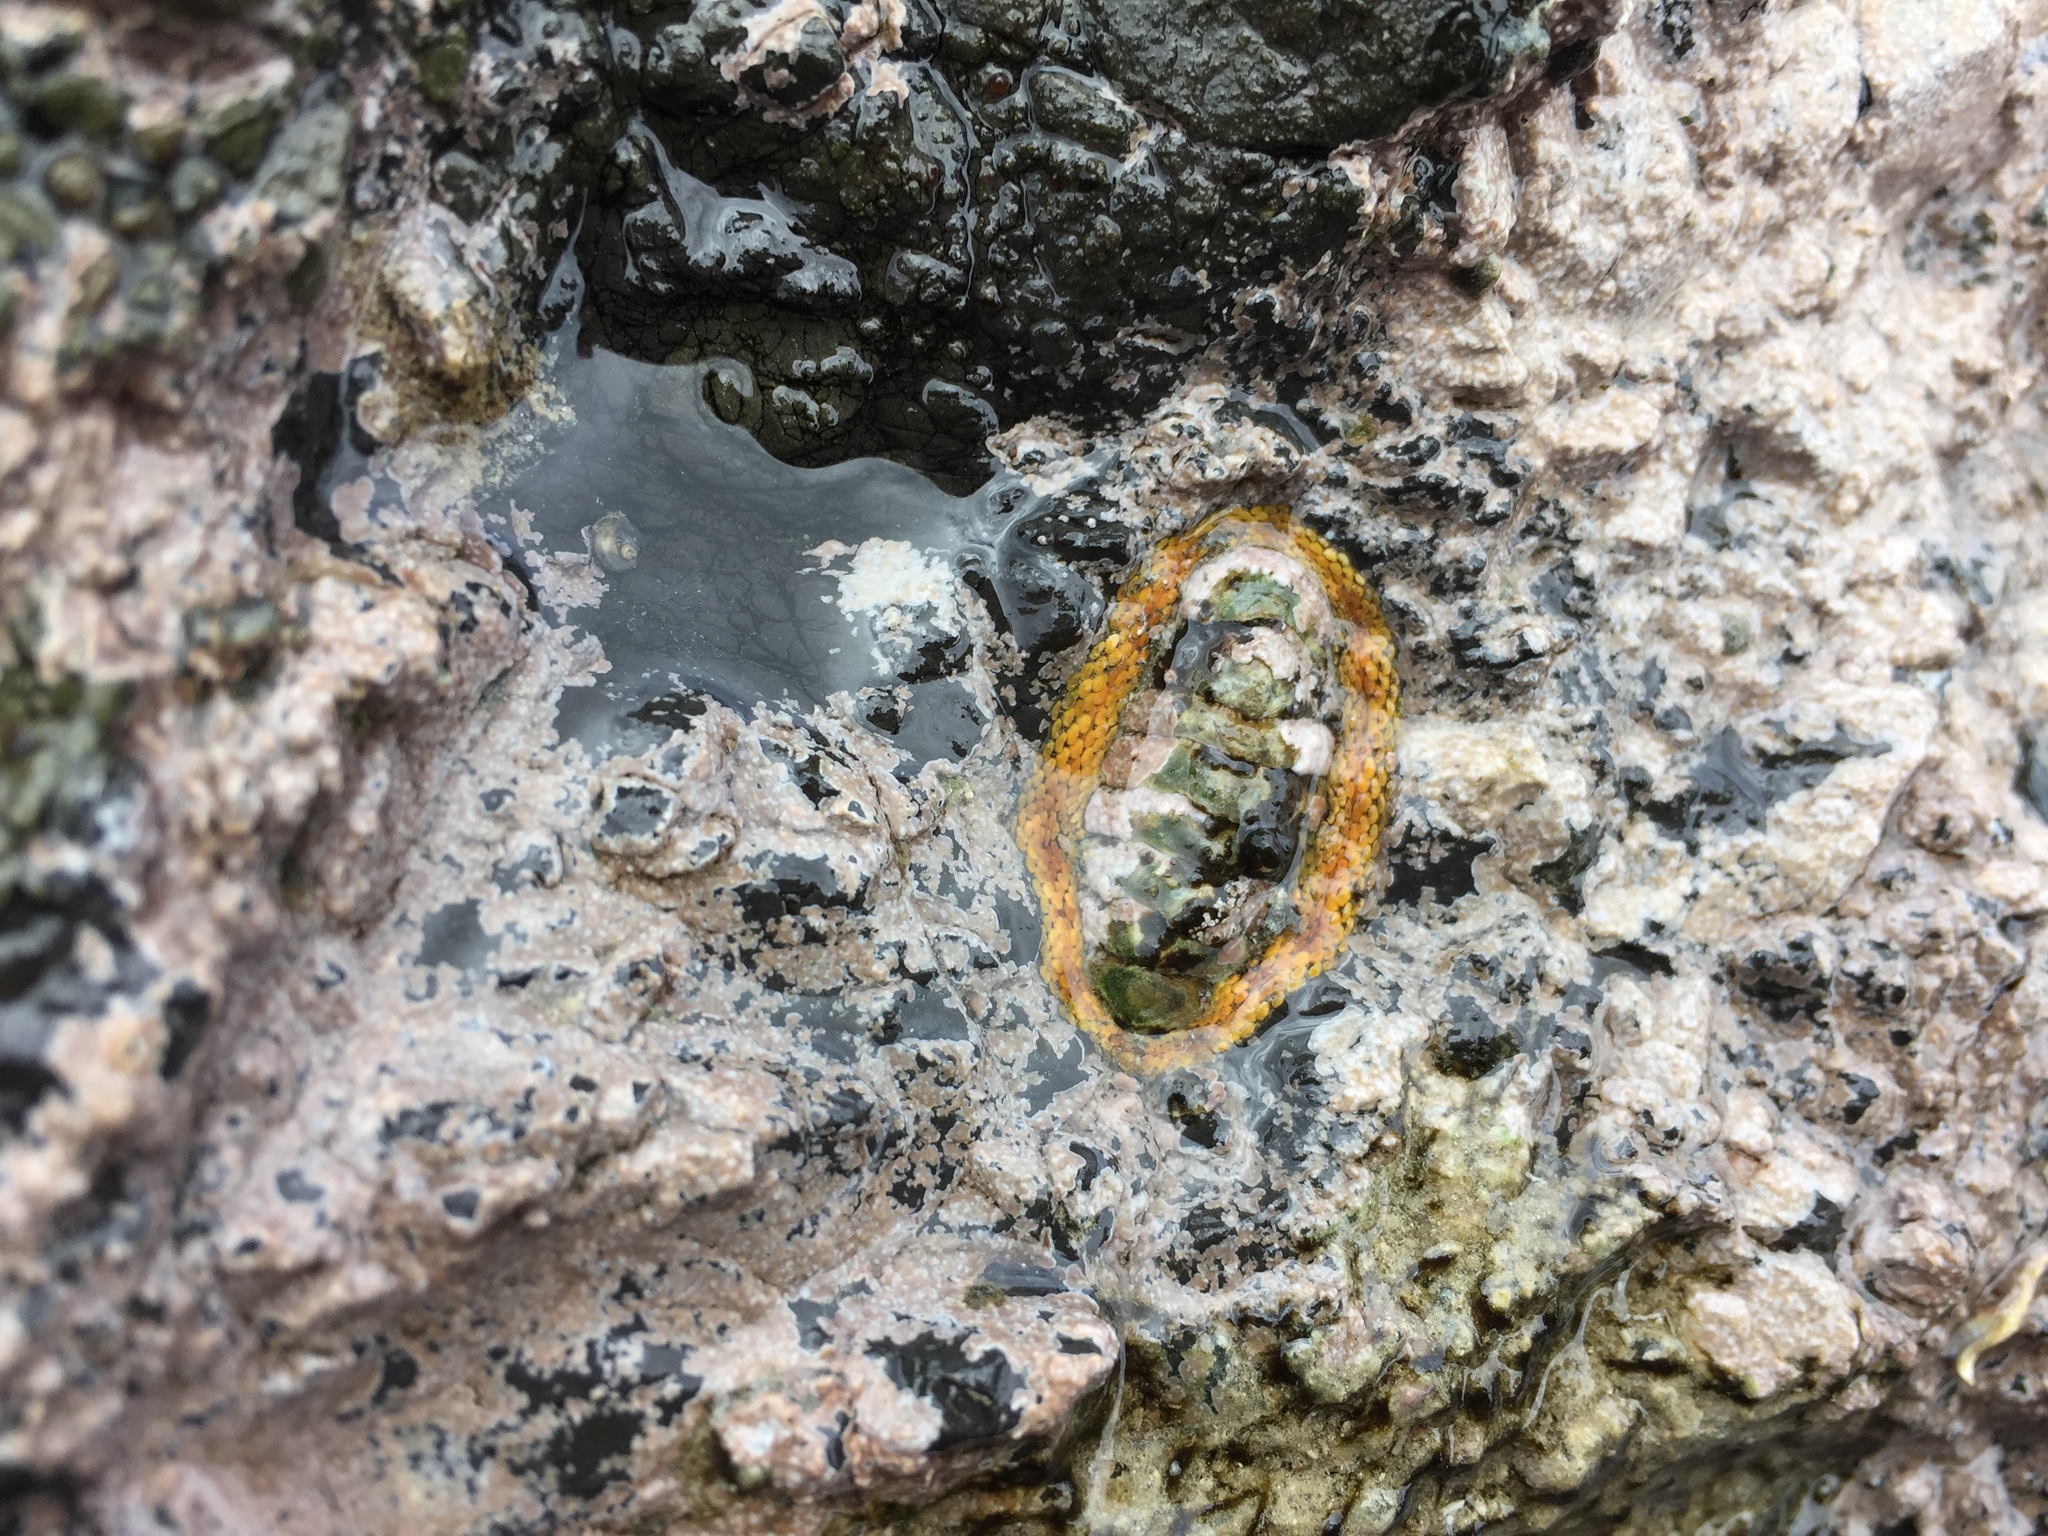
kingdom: Animalia
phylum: Mollusca
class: Polyplacophora
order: Chitonida
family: Chitonidae
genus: Sypharochiton
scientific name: Sypharochiton pelliserpentis
